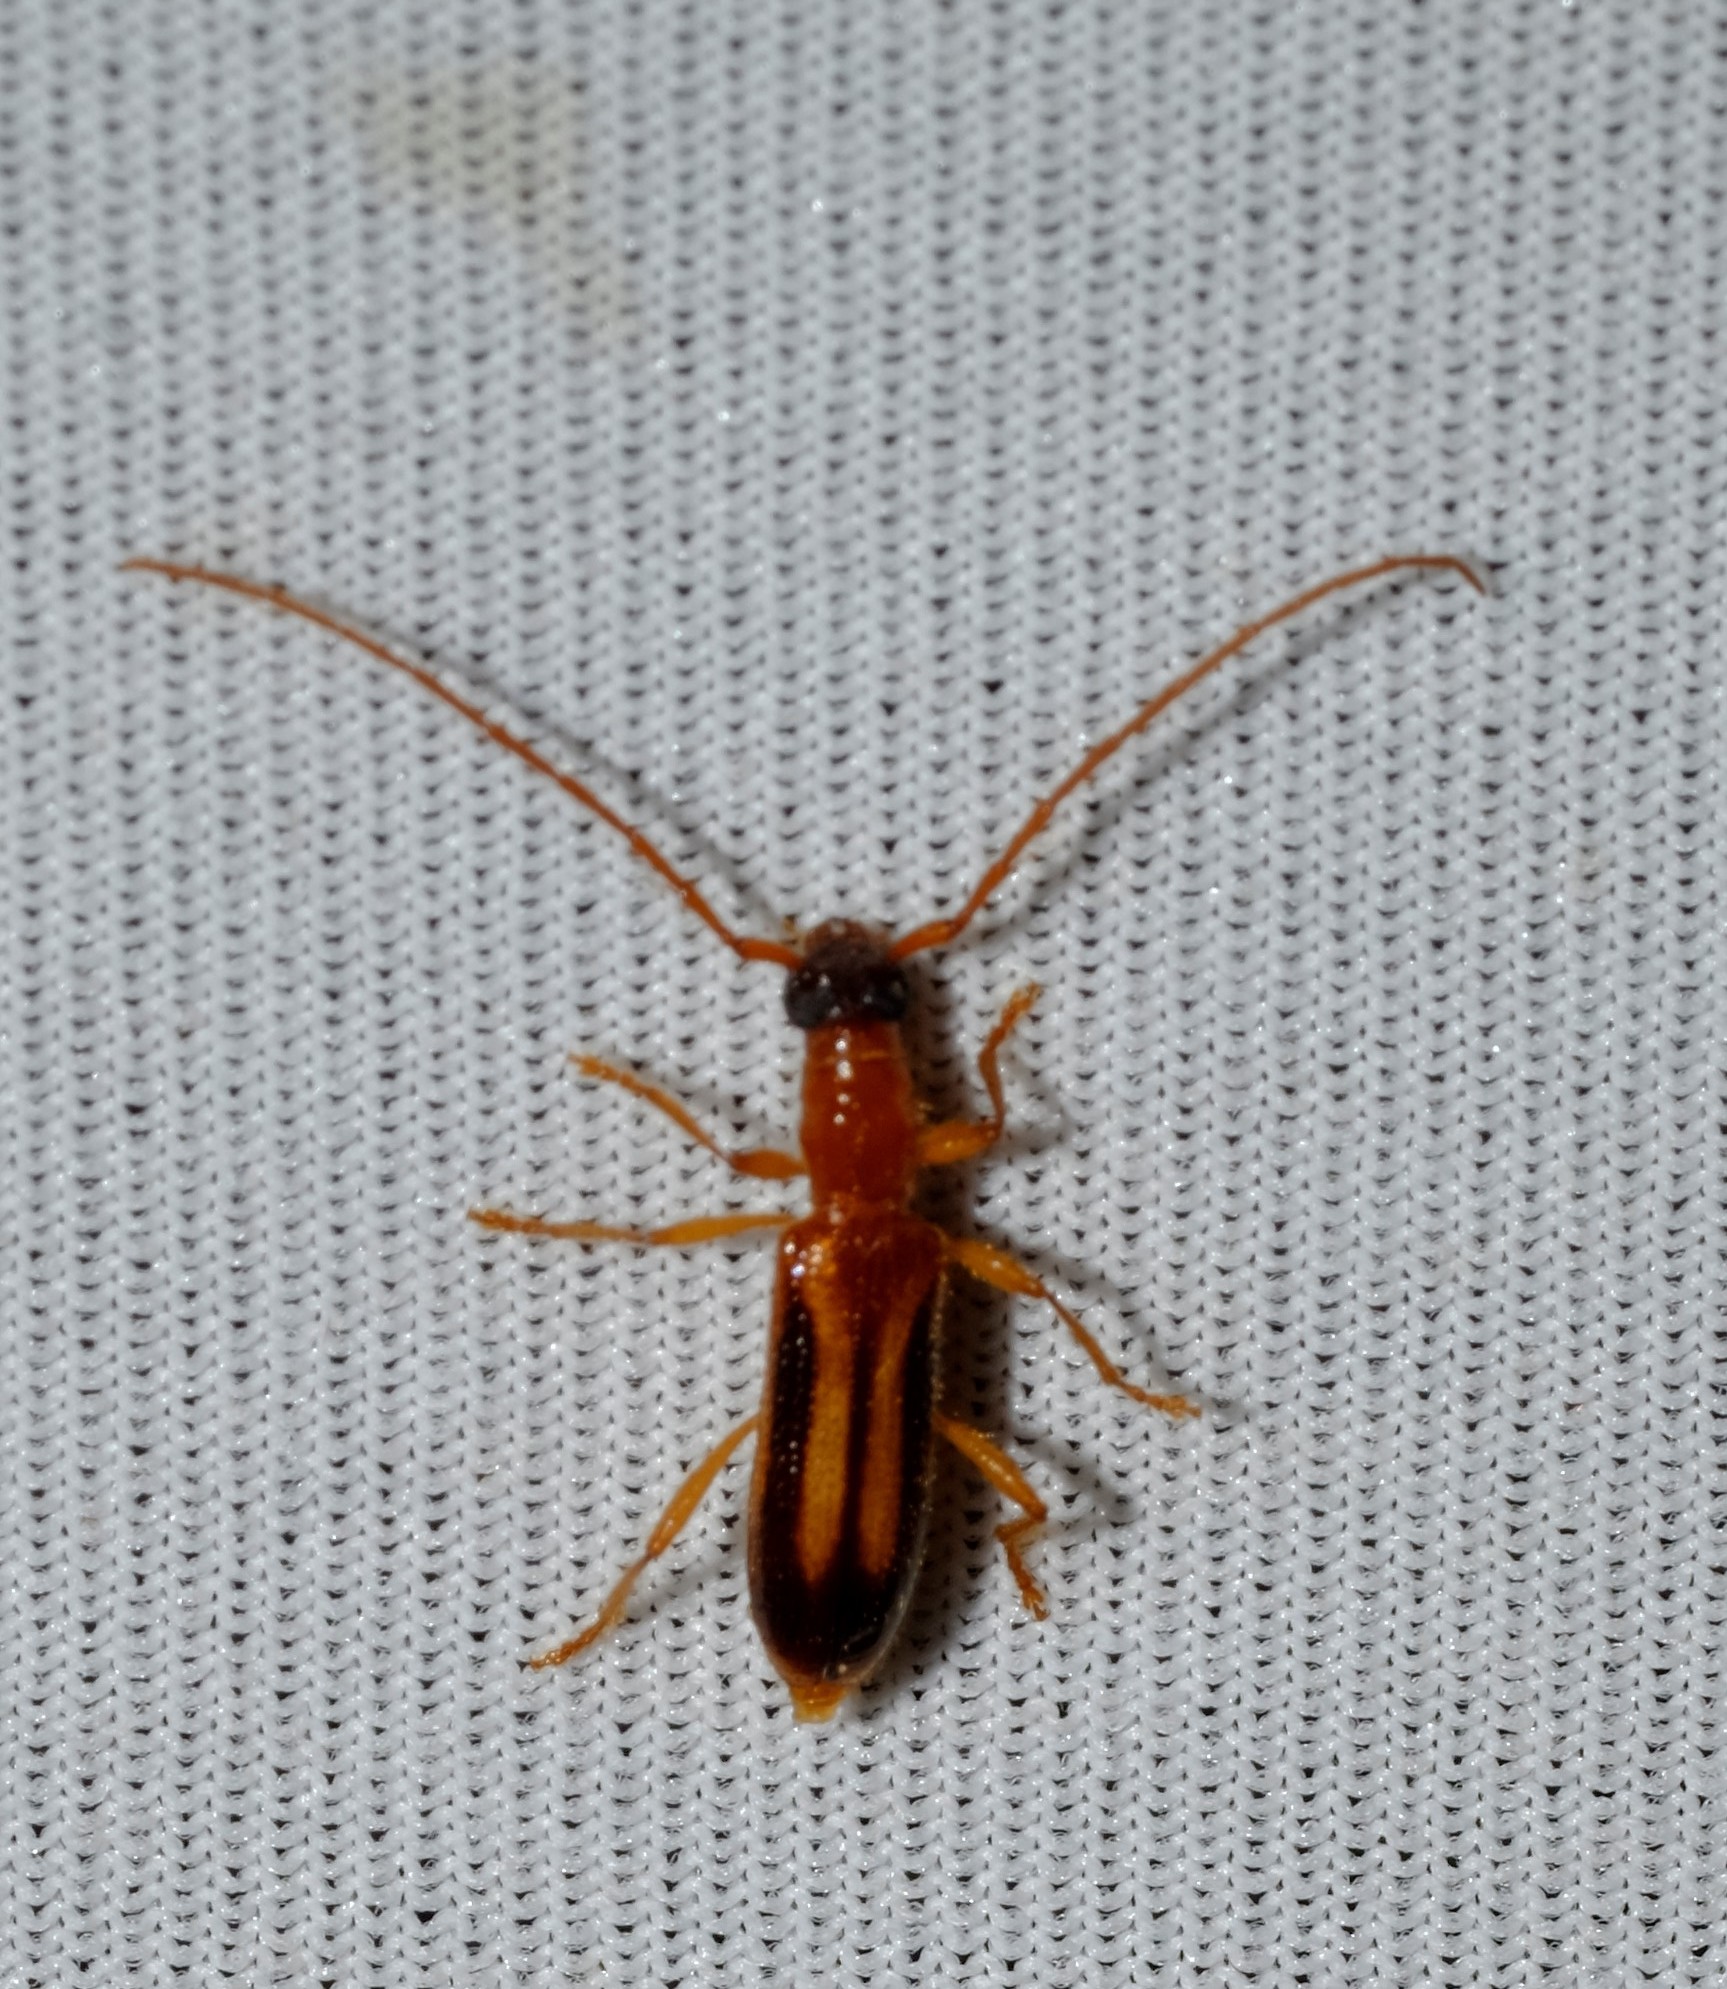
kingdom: Animalia
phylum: Arthropoda
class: Insecta
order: Coleoptera
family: Cerambycidae
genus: Atesta
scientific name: Atesta
